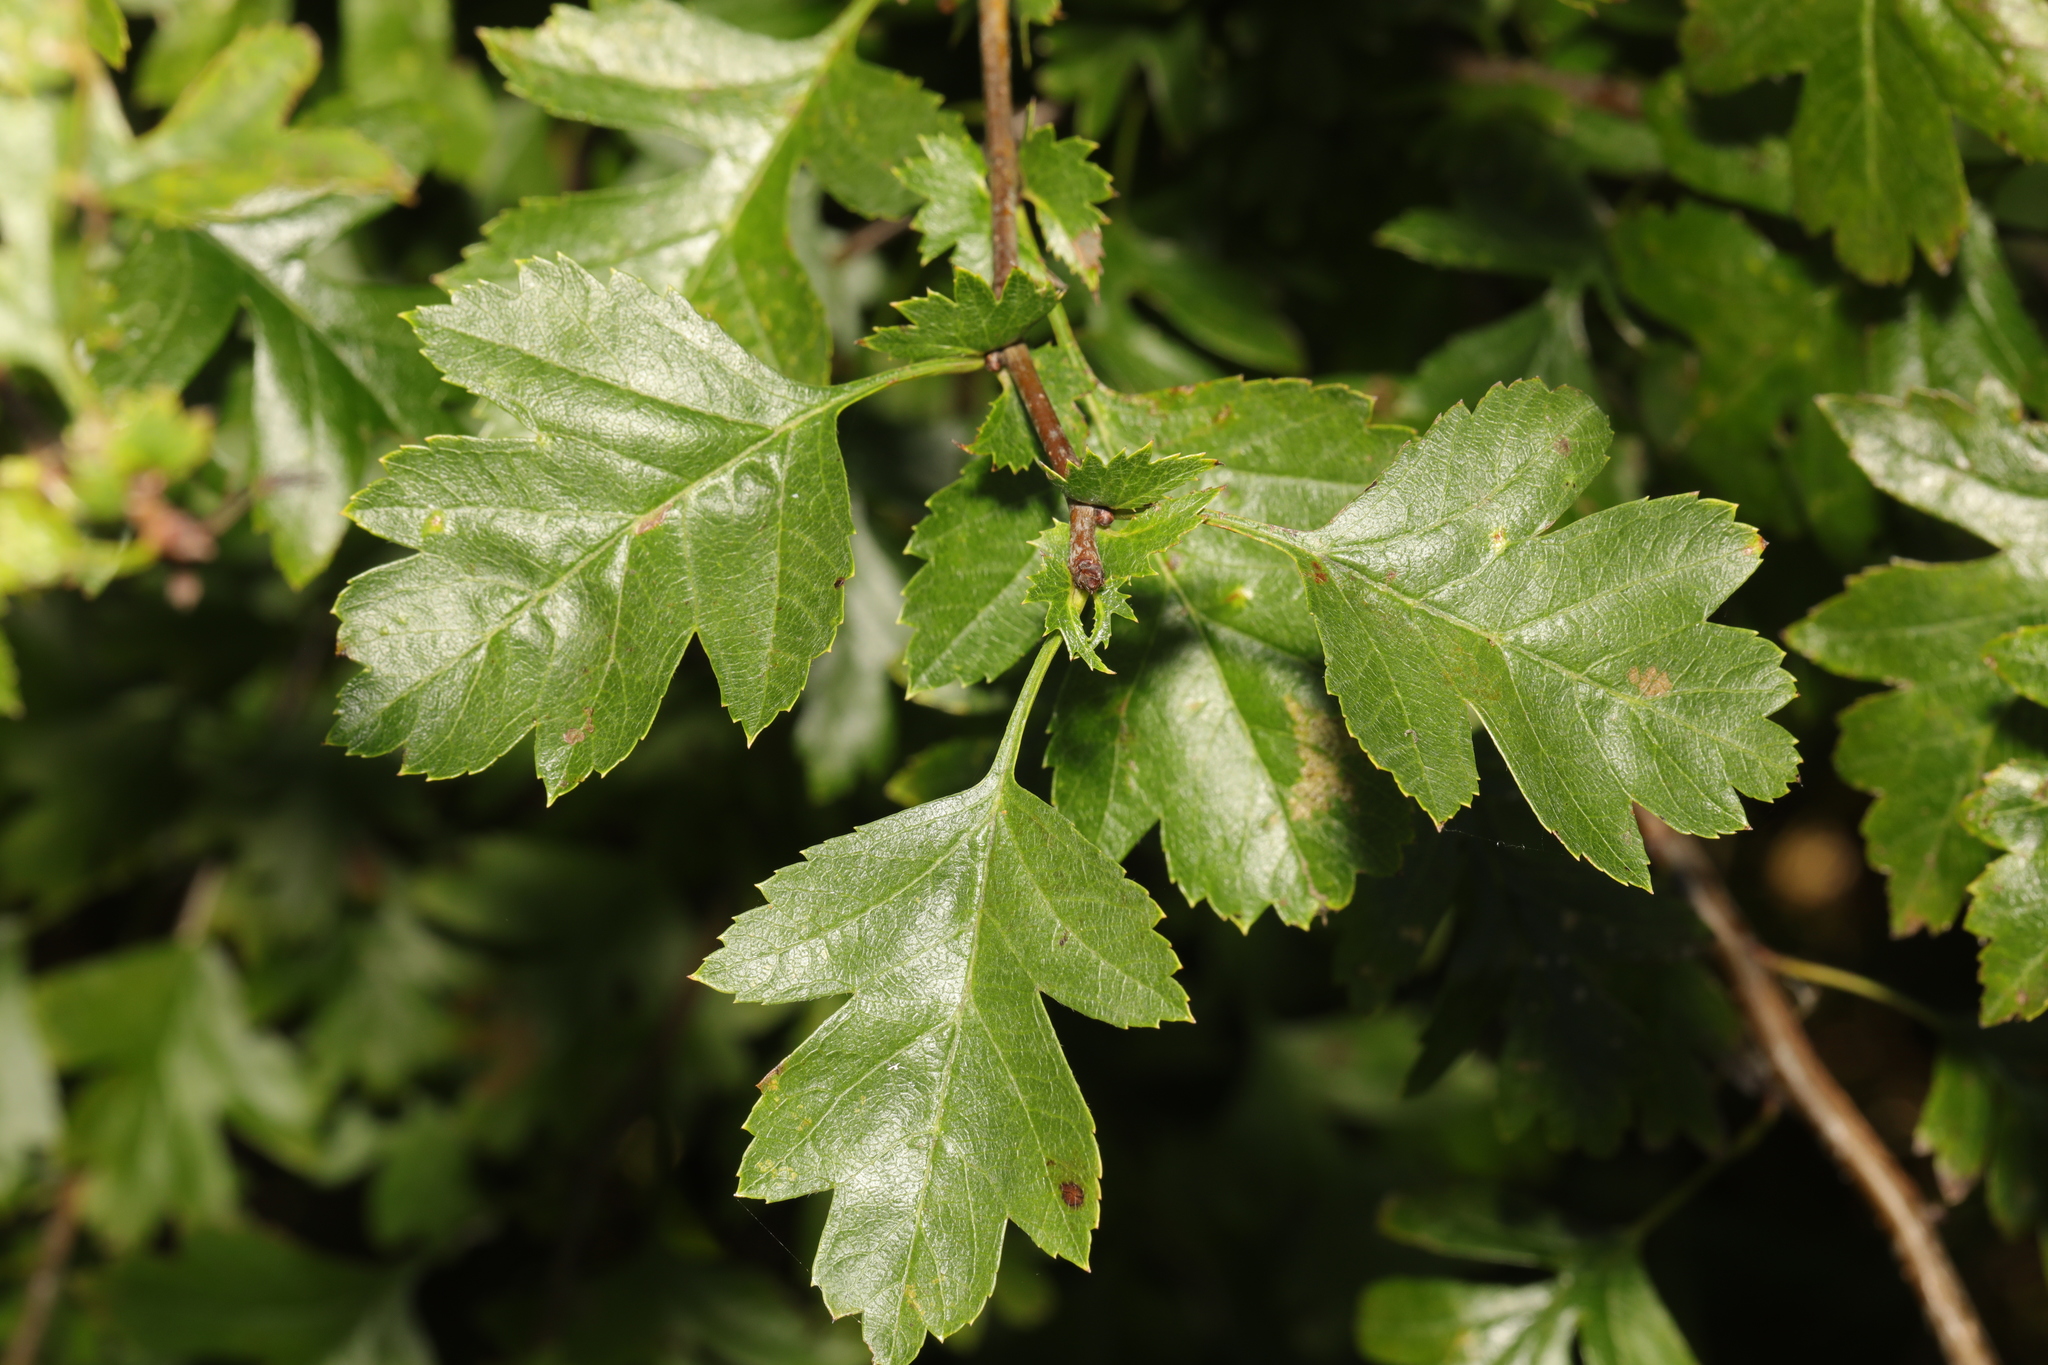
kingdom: Plantae
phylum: Tracheophyta
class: Magnoliopsida
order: Rosales
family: Rosaceae
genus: Crataegus
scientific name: Crataegus monogyna
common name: Hawthorn
